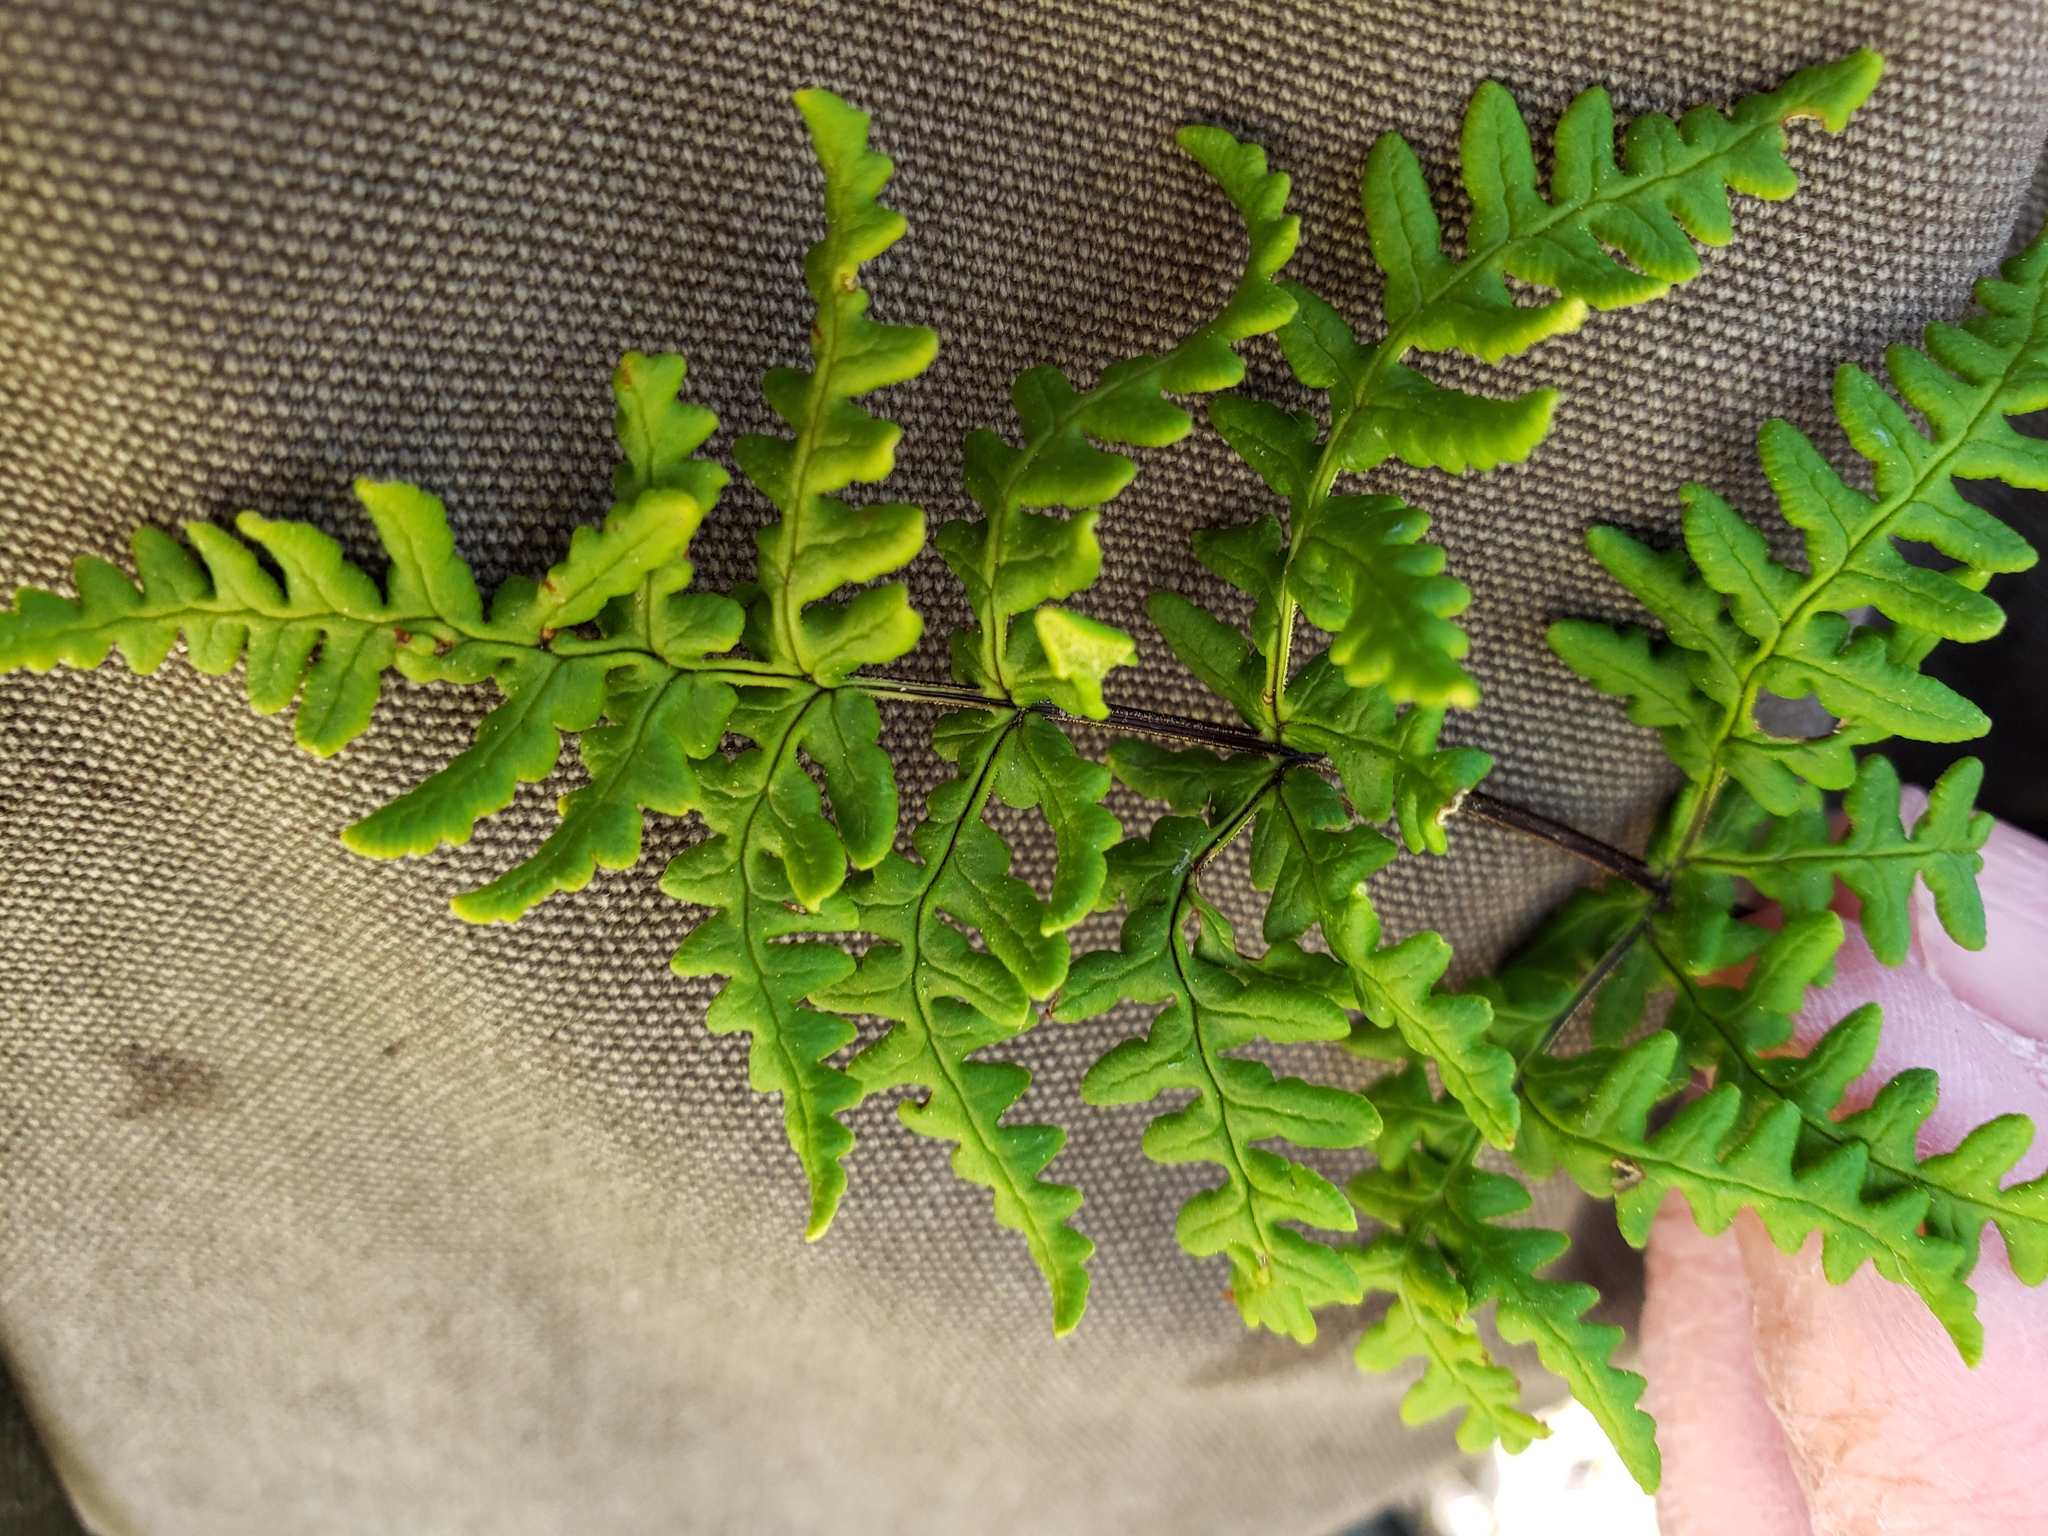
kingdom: Plantae
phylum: Tracheophyta
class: Polypodiopsida
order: Polypodiales
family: Pteridaceae
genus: Pentagramma
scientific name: Pentagramma triangularis
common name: Gold fern
